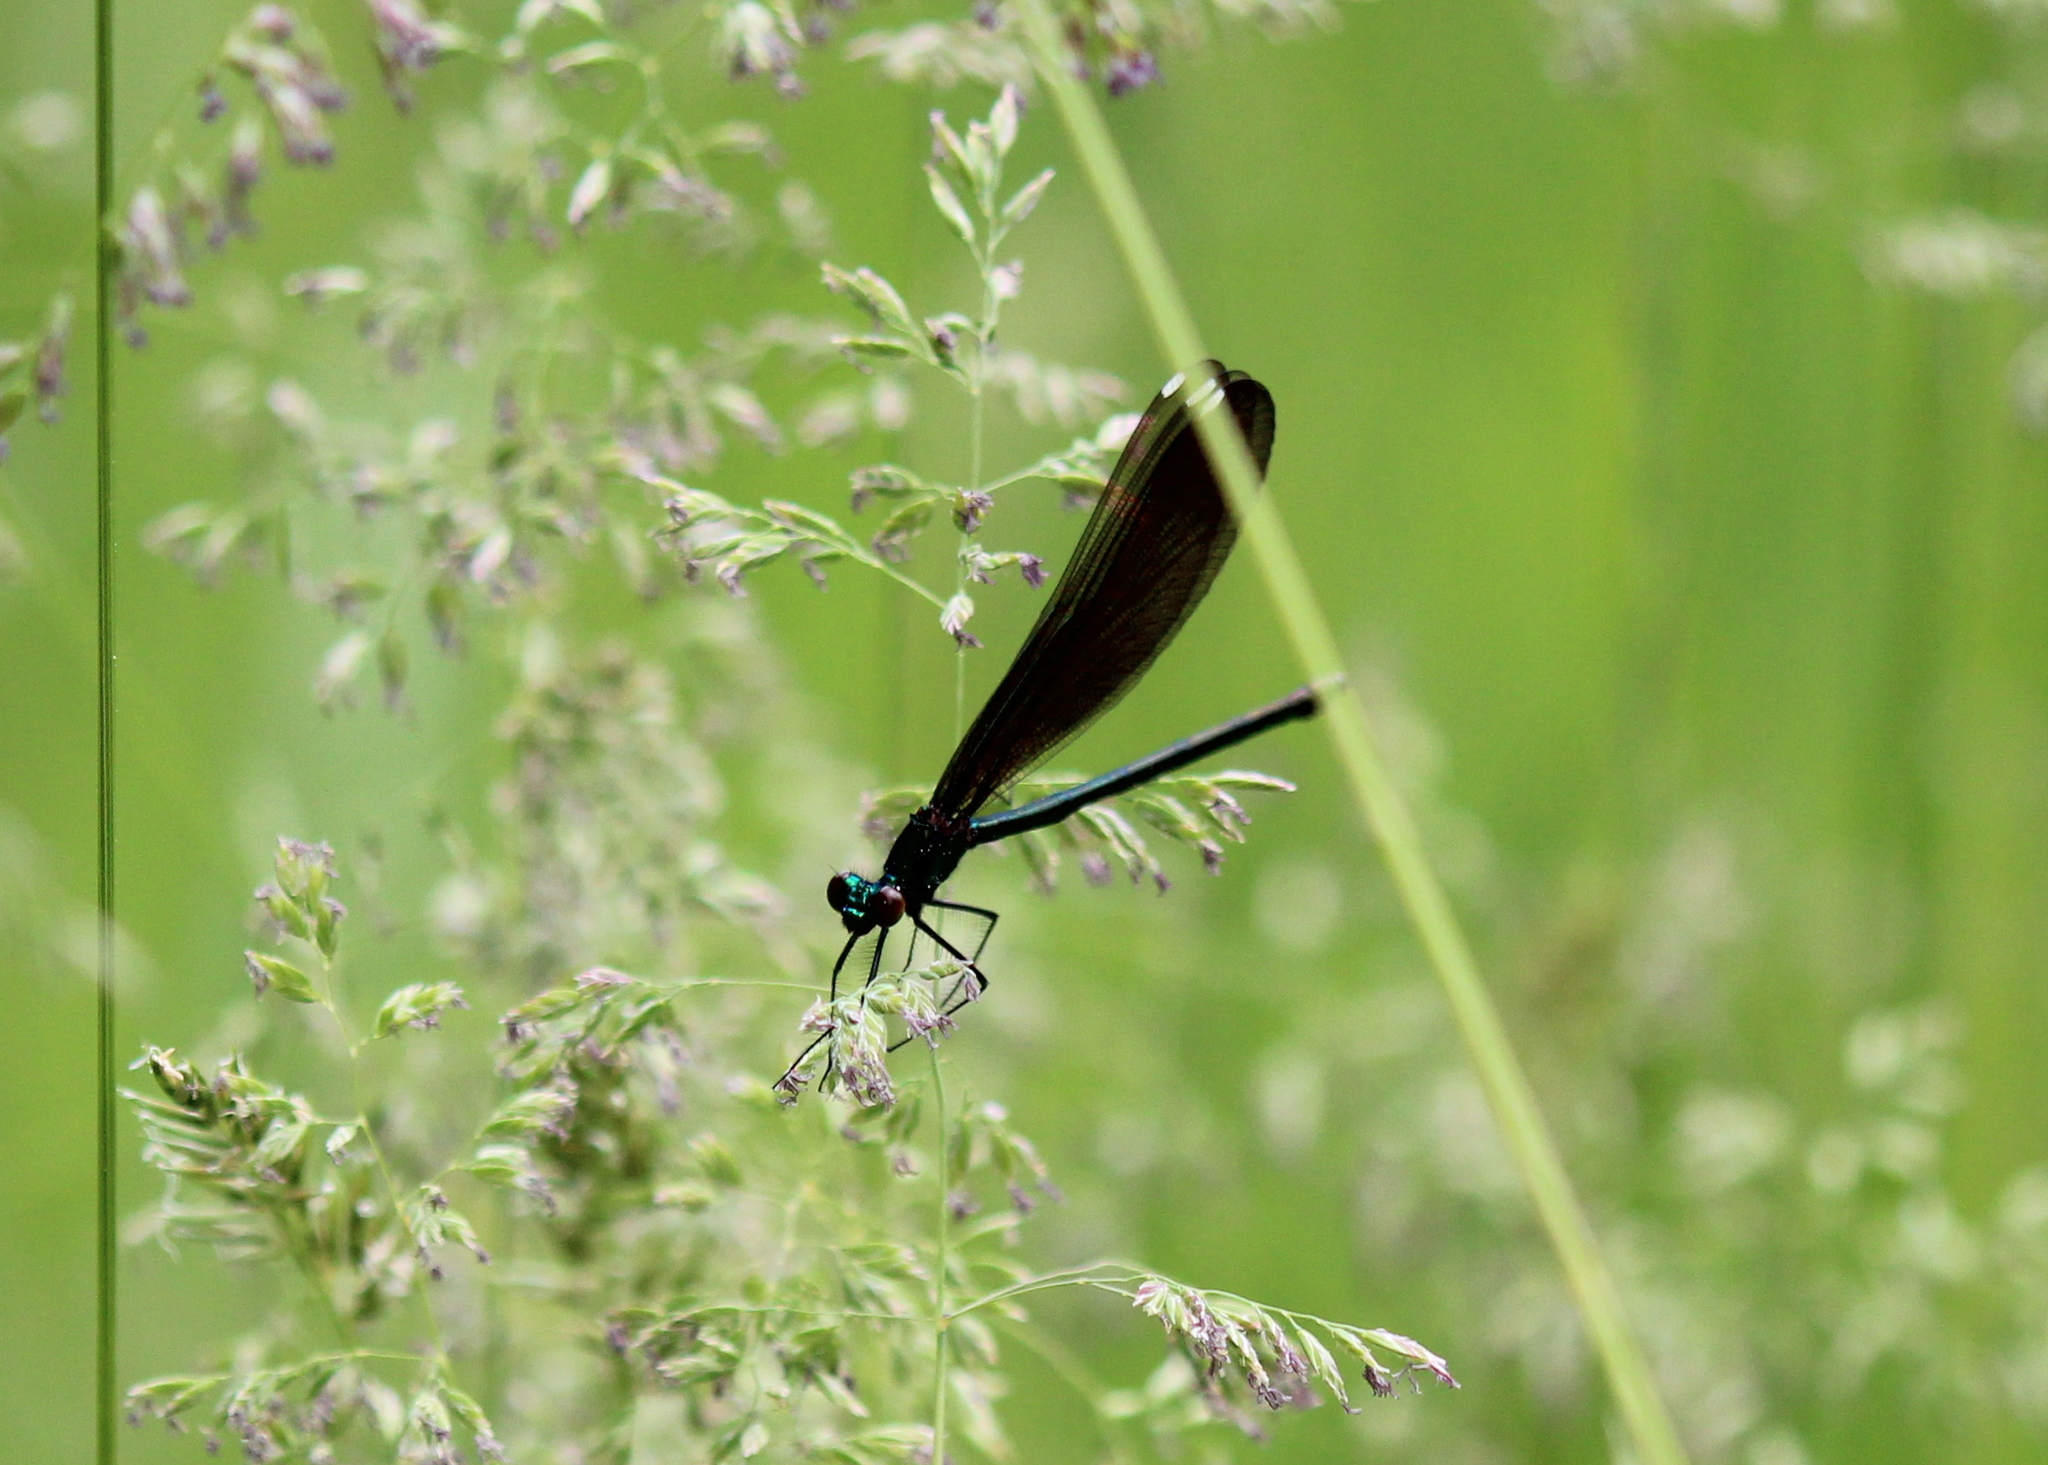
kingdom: Animalia
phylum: Arthropoda
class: Insecta
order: Odonata
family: Calopterygidae
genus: Calopteryx
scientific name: Calopteryx maculata
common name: Ebony jewelwing
